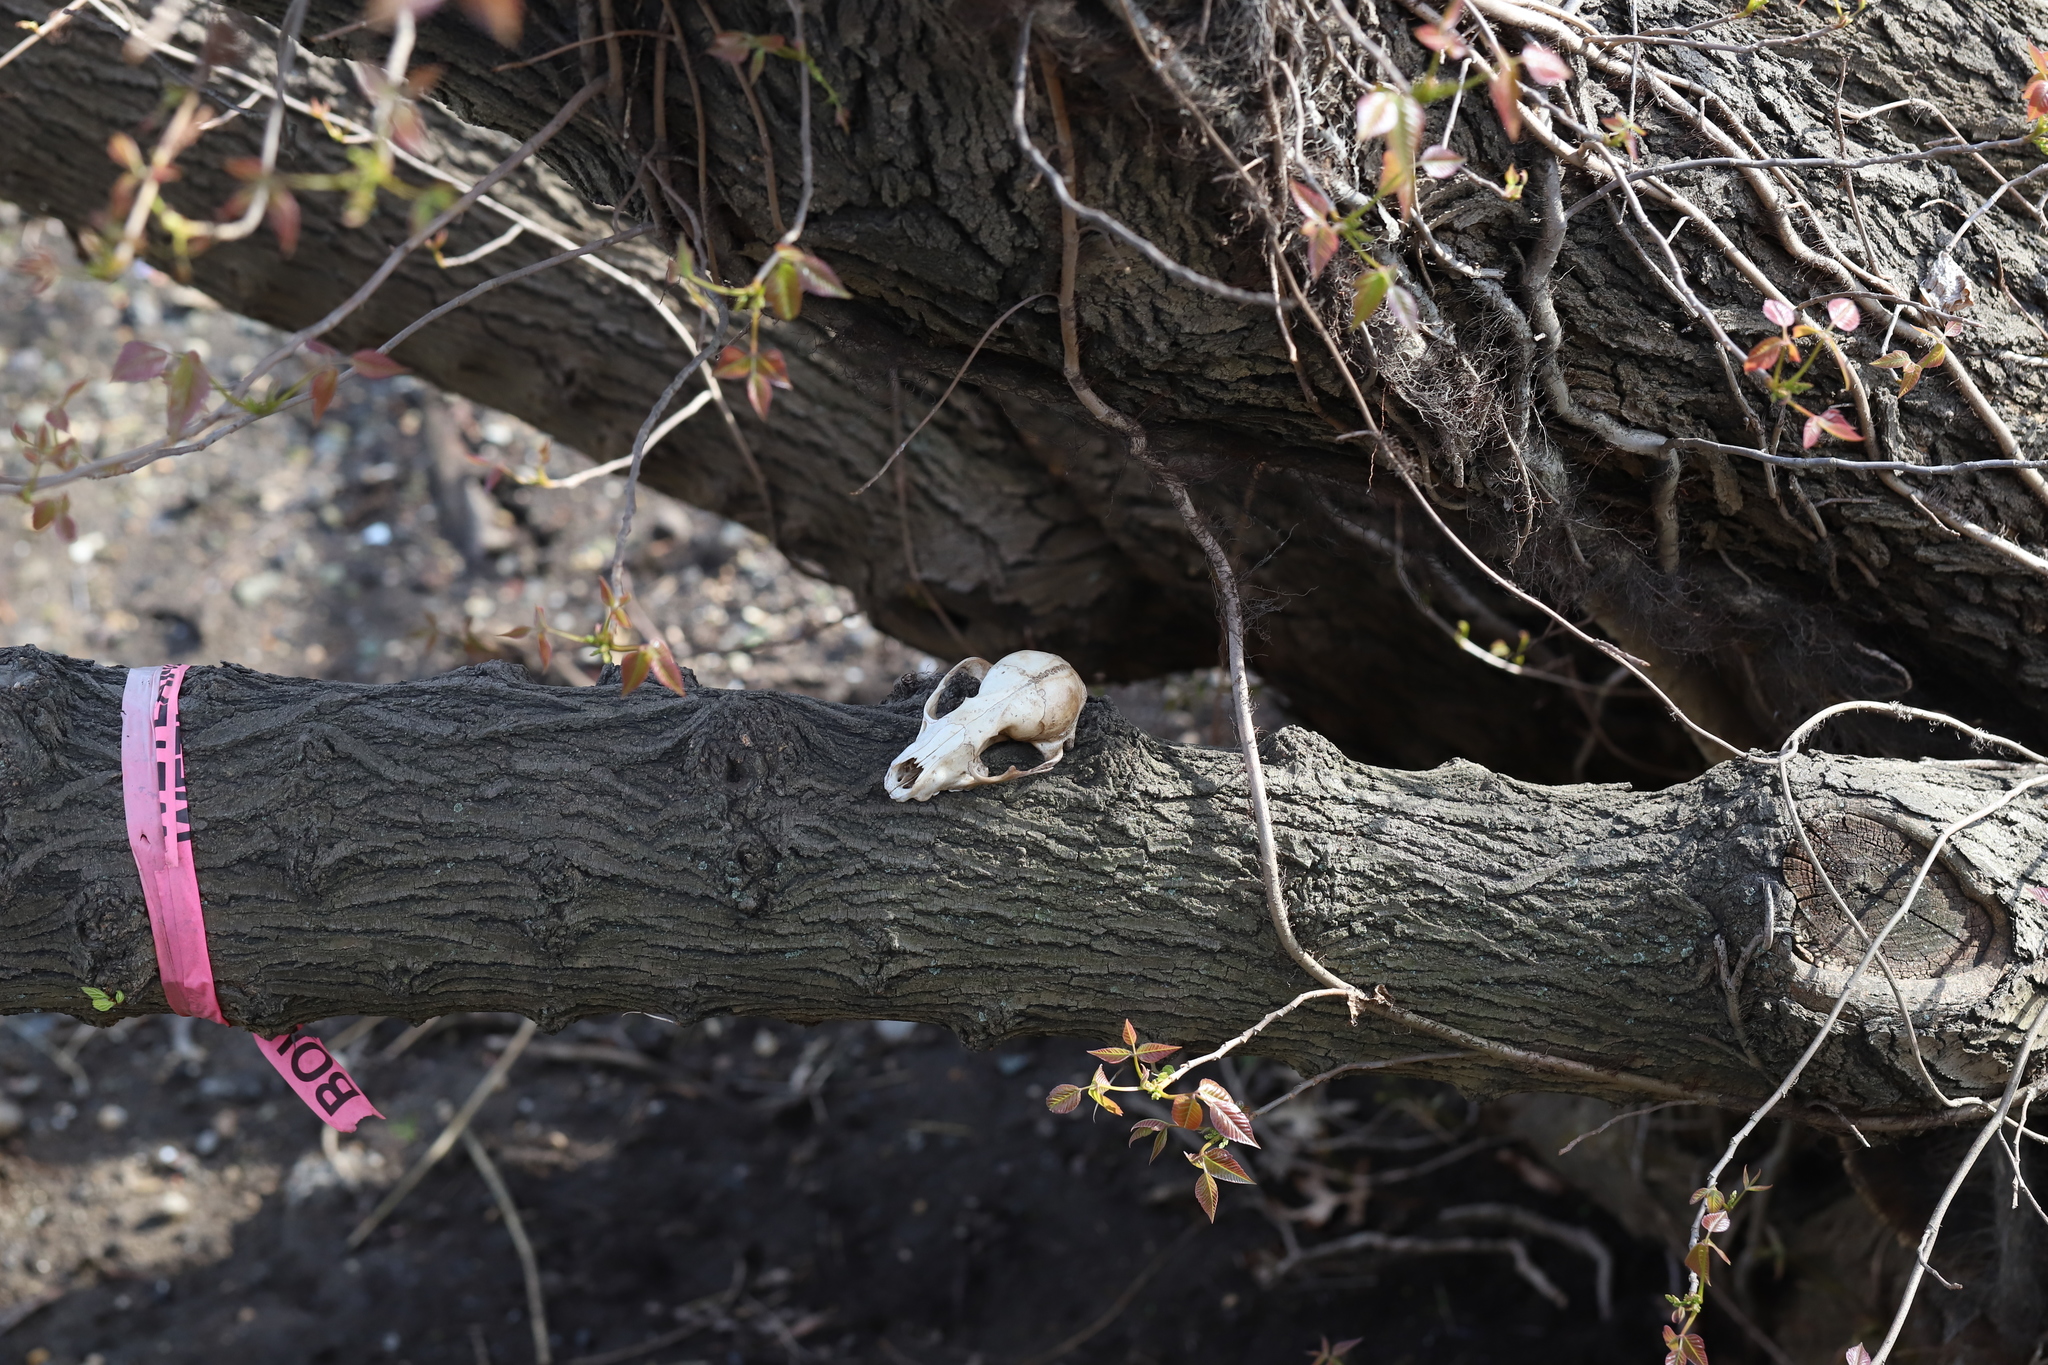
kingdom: Animalia
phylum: Chordata
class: Mammalia
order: Carnivora
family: Procyonidae
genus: Procyon
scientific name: Procyon lotor
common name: Raccoon
